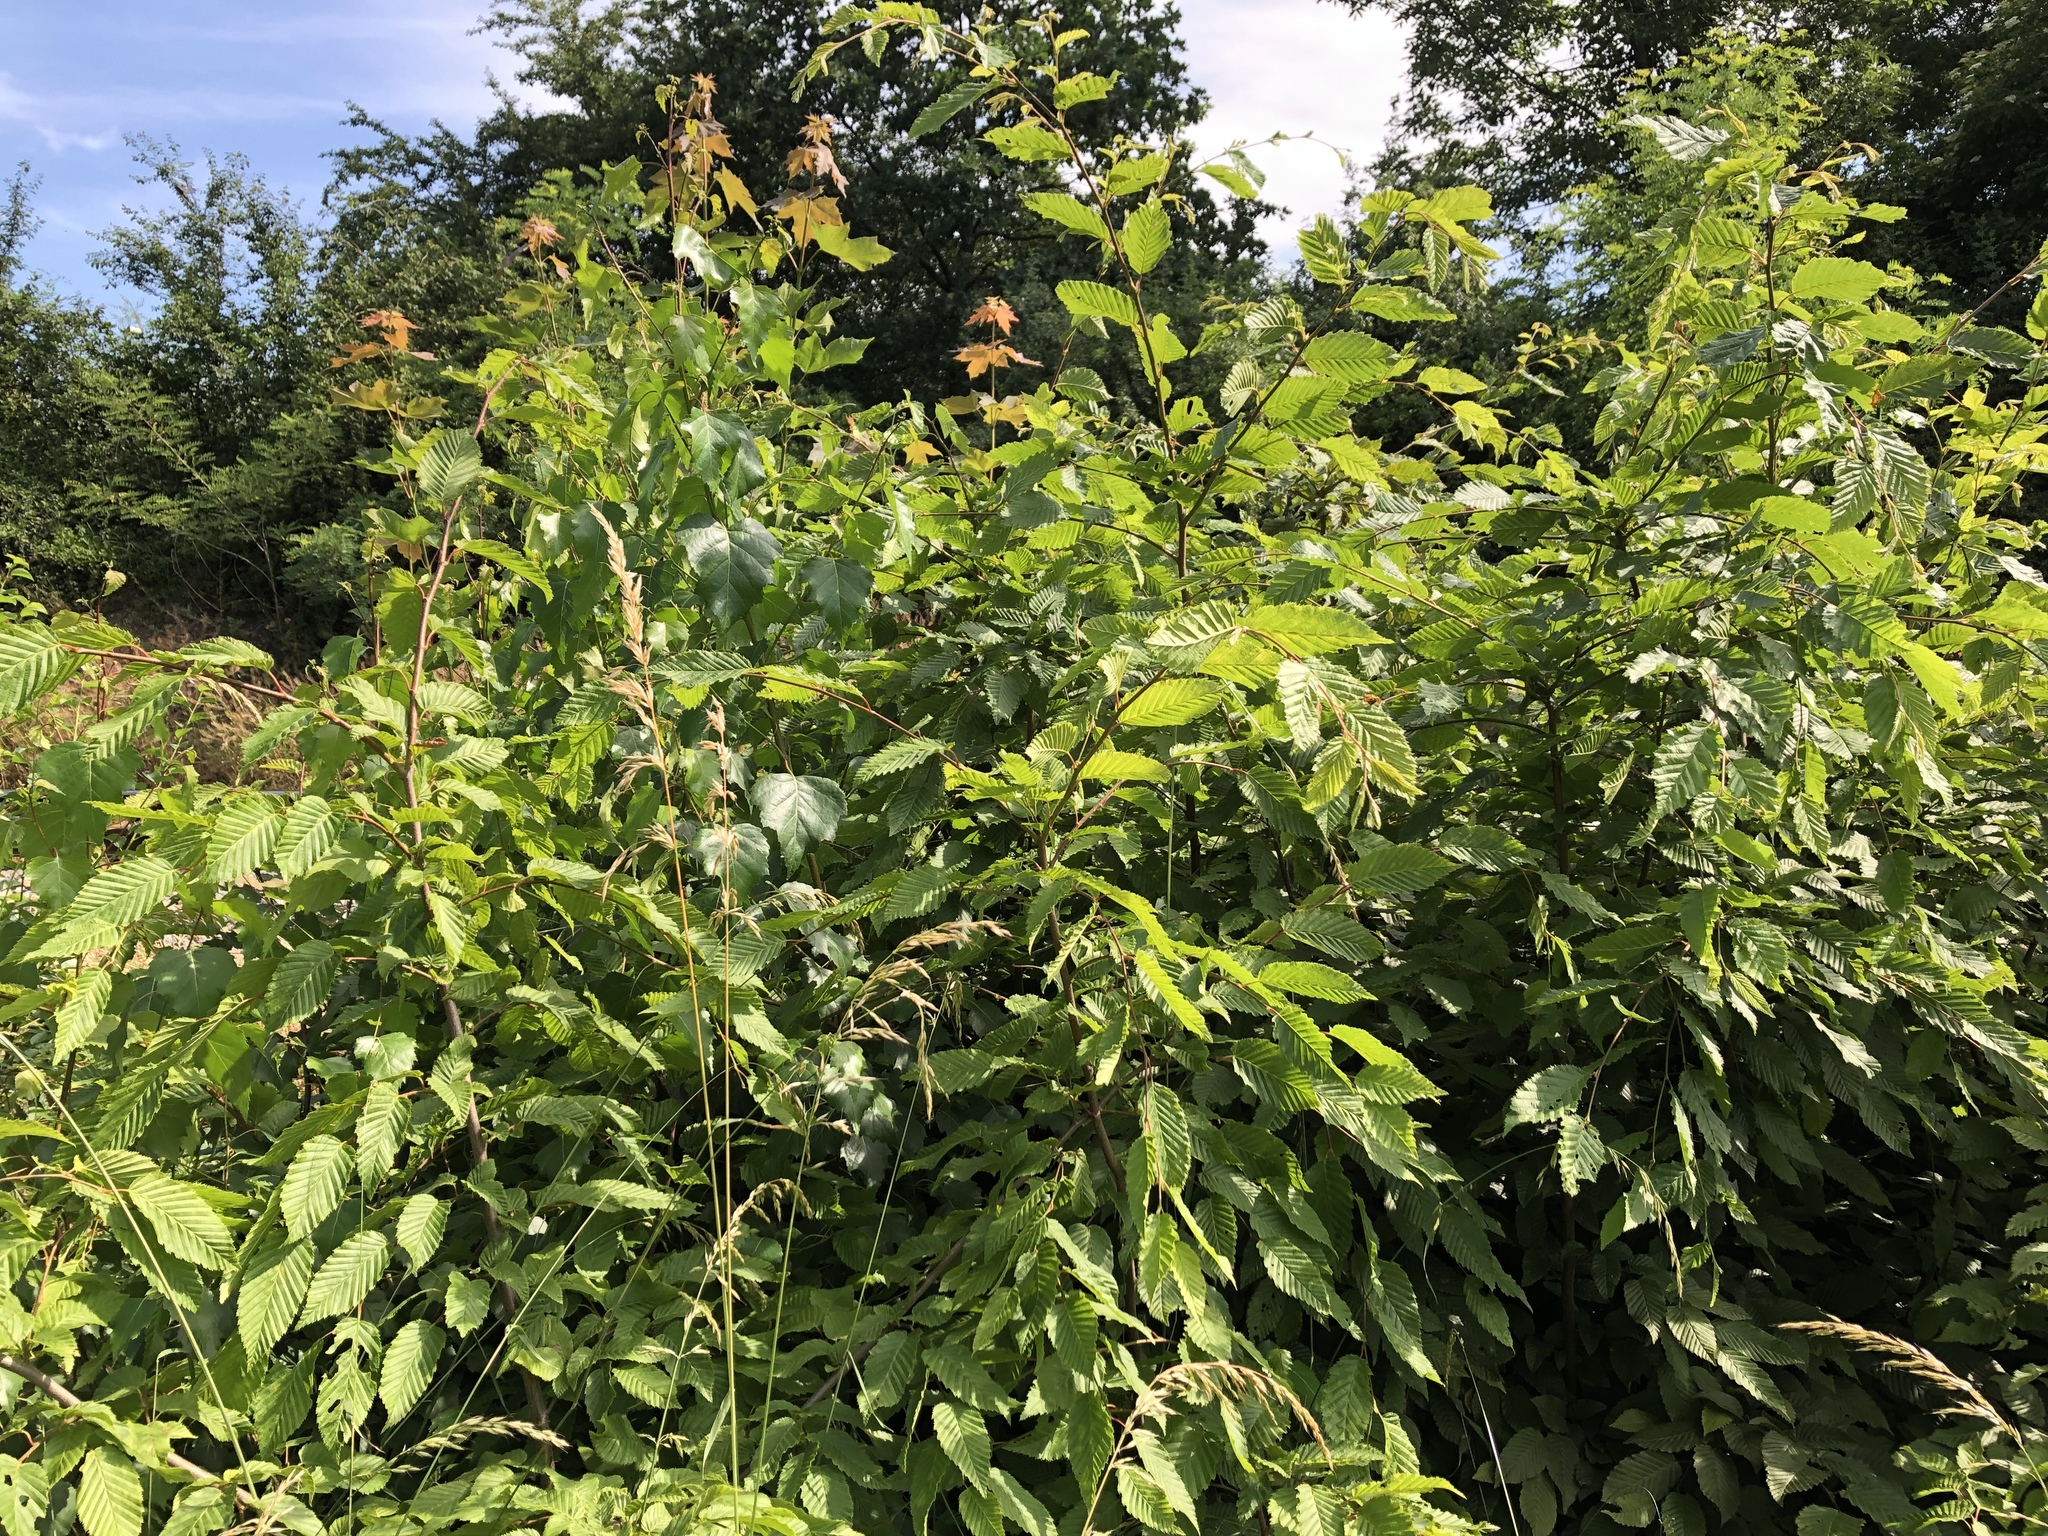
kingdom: Plantae
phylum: Tracheophyta
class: Magnoliopsida
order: Fagales
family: Betulaceae
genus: Carpinus
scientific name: Carpinus betulus
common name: Hornbeam
